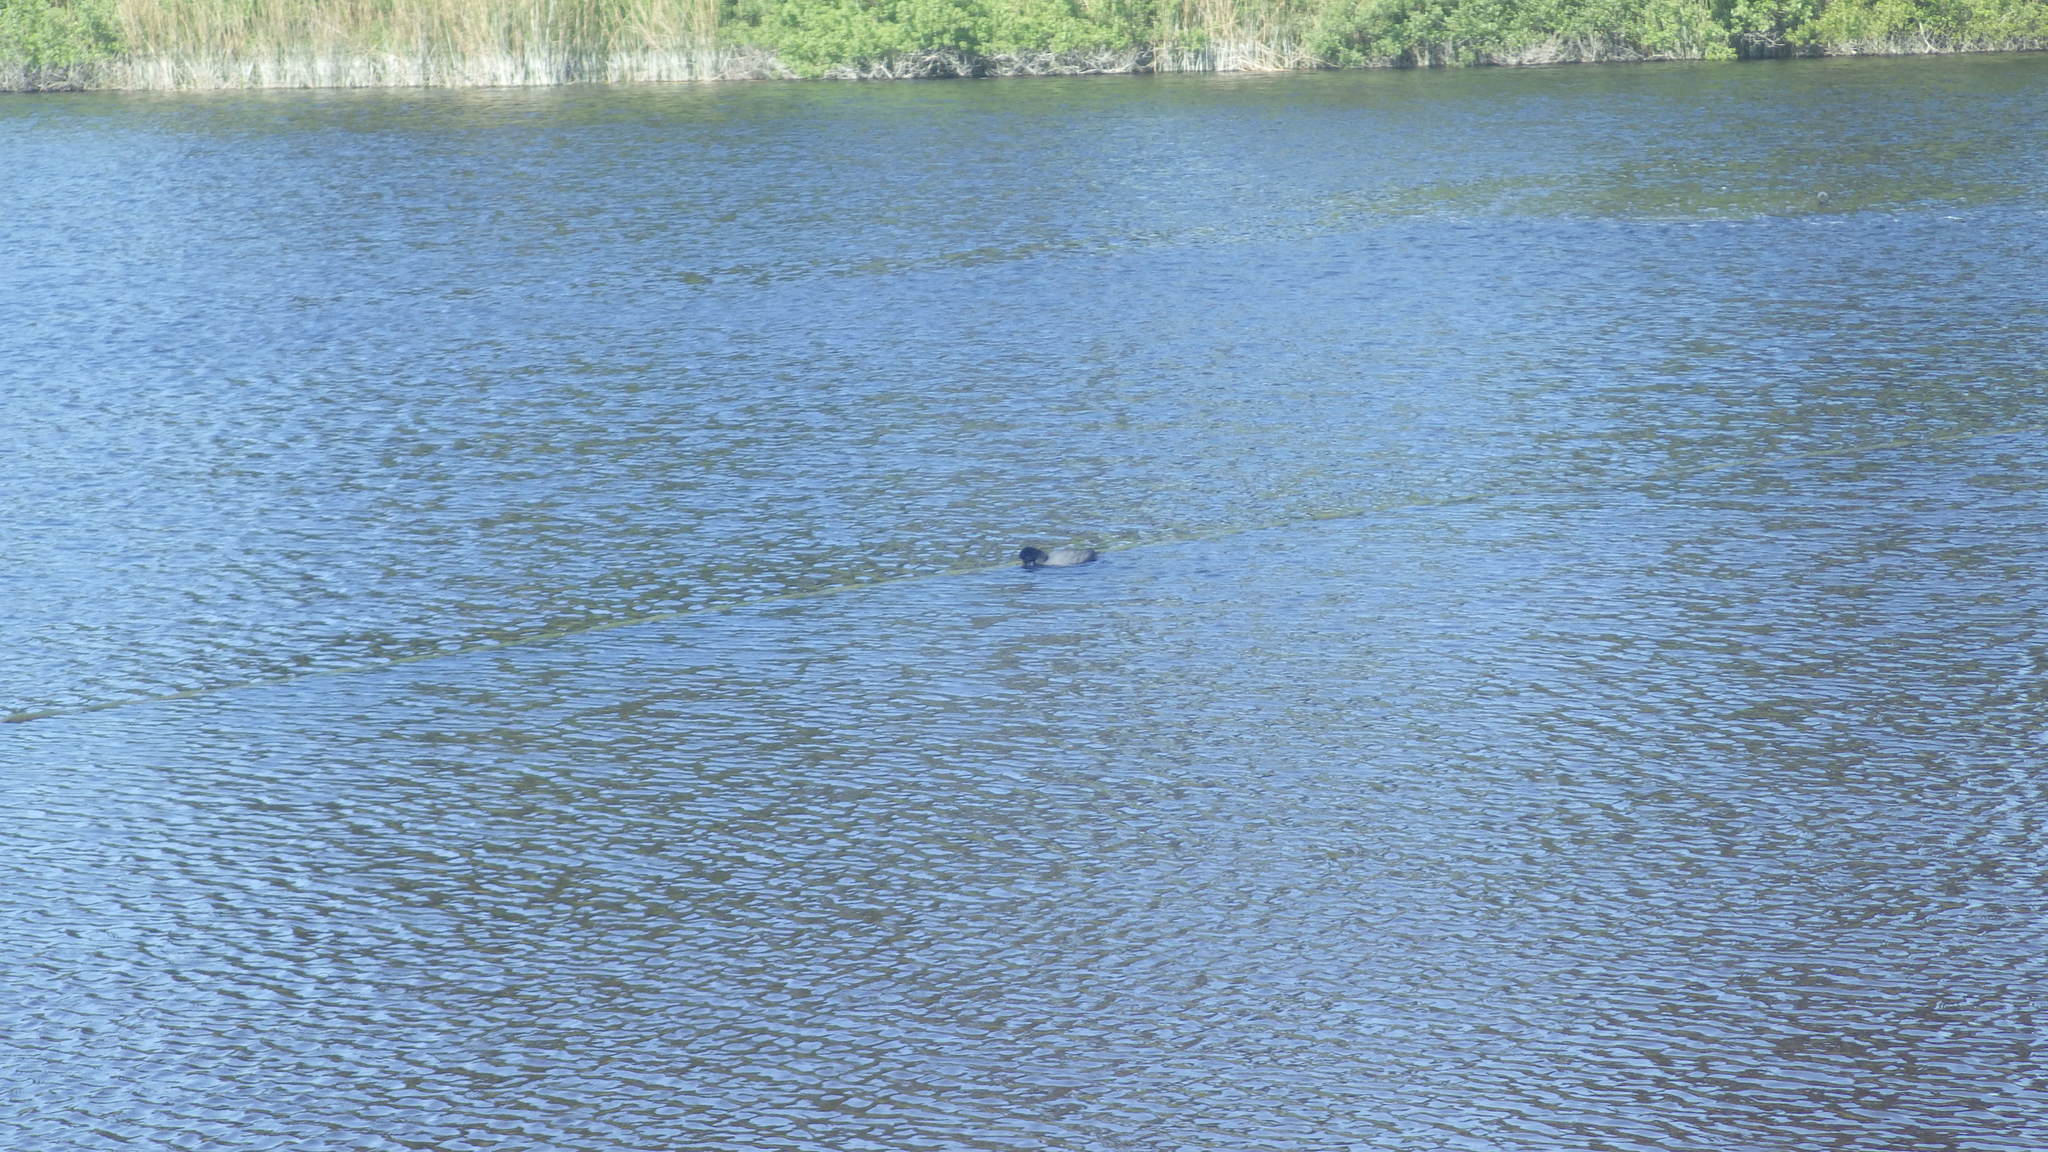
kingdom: Animalia
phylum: Chordata
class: Aves
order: Gruiformes
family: Rallidae
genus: Fulica
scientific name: Fulica americana
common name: American coot
